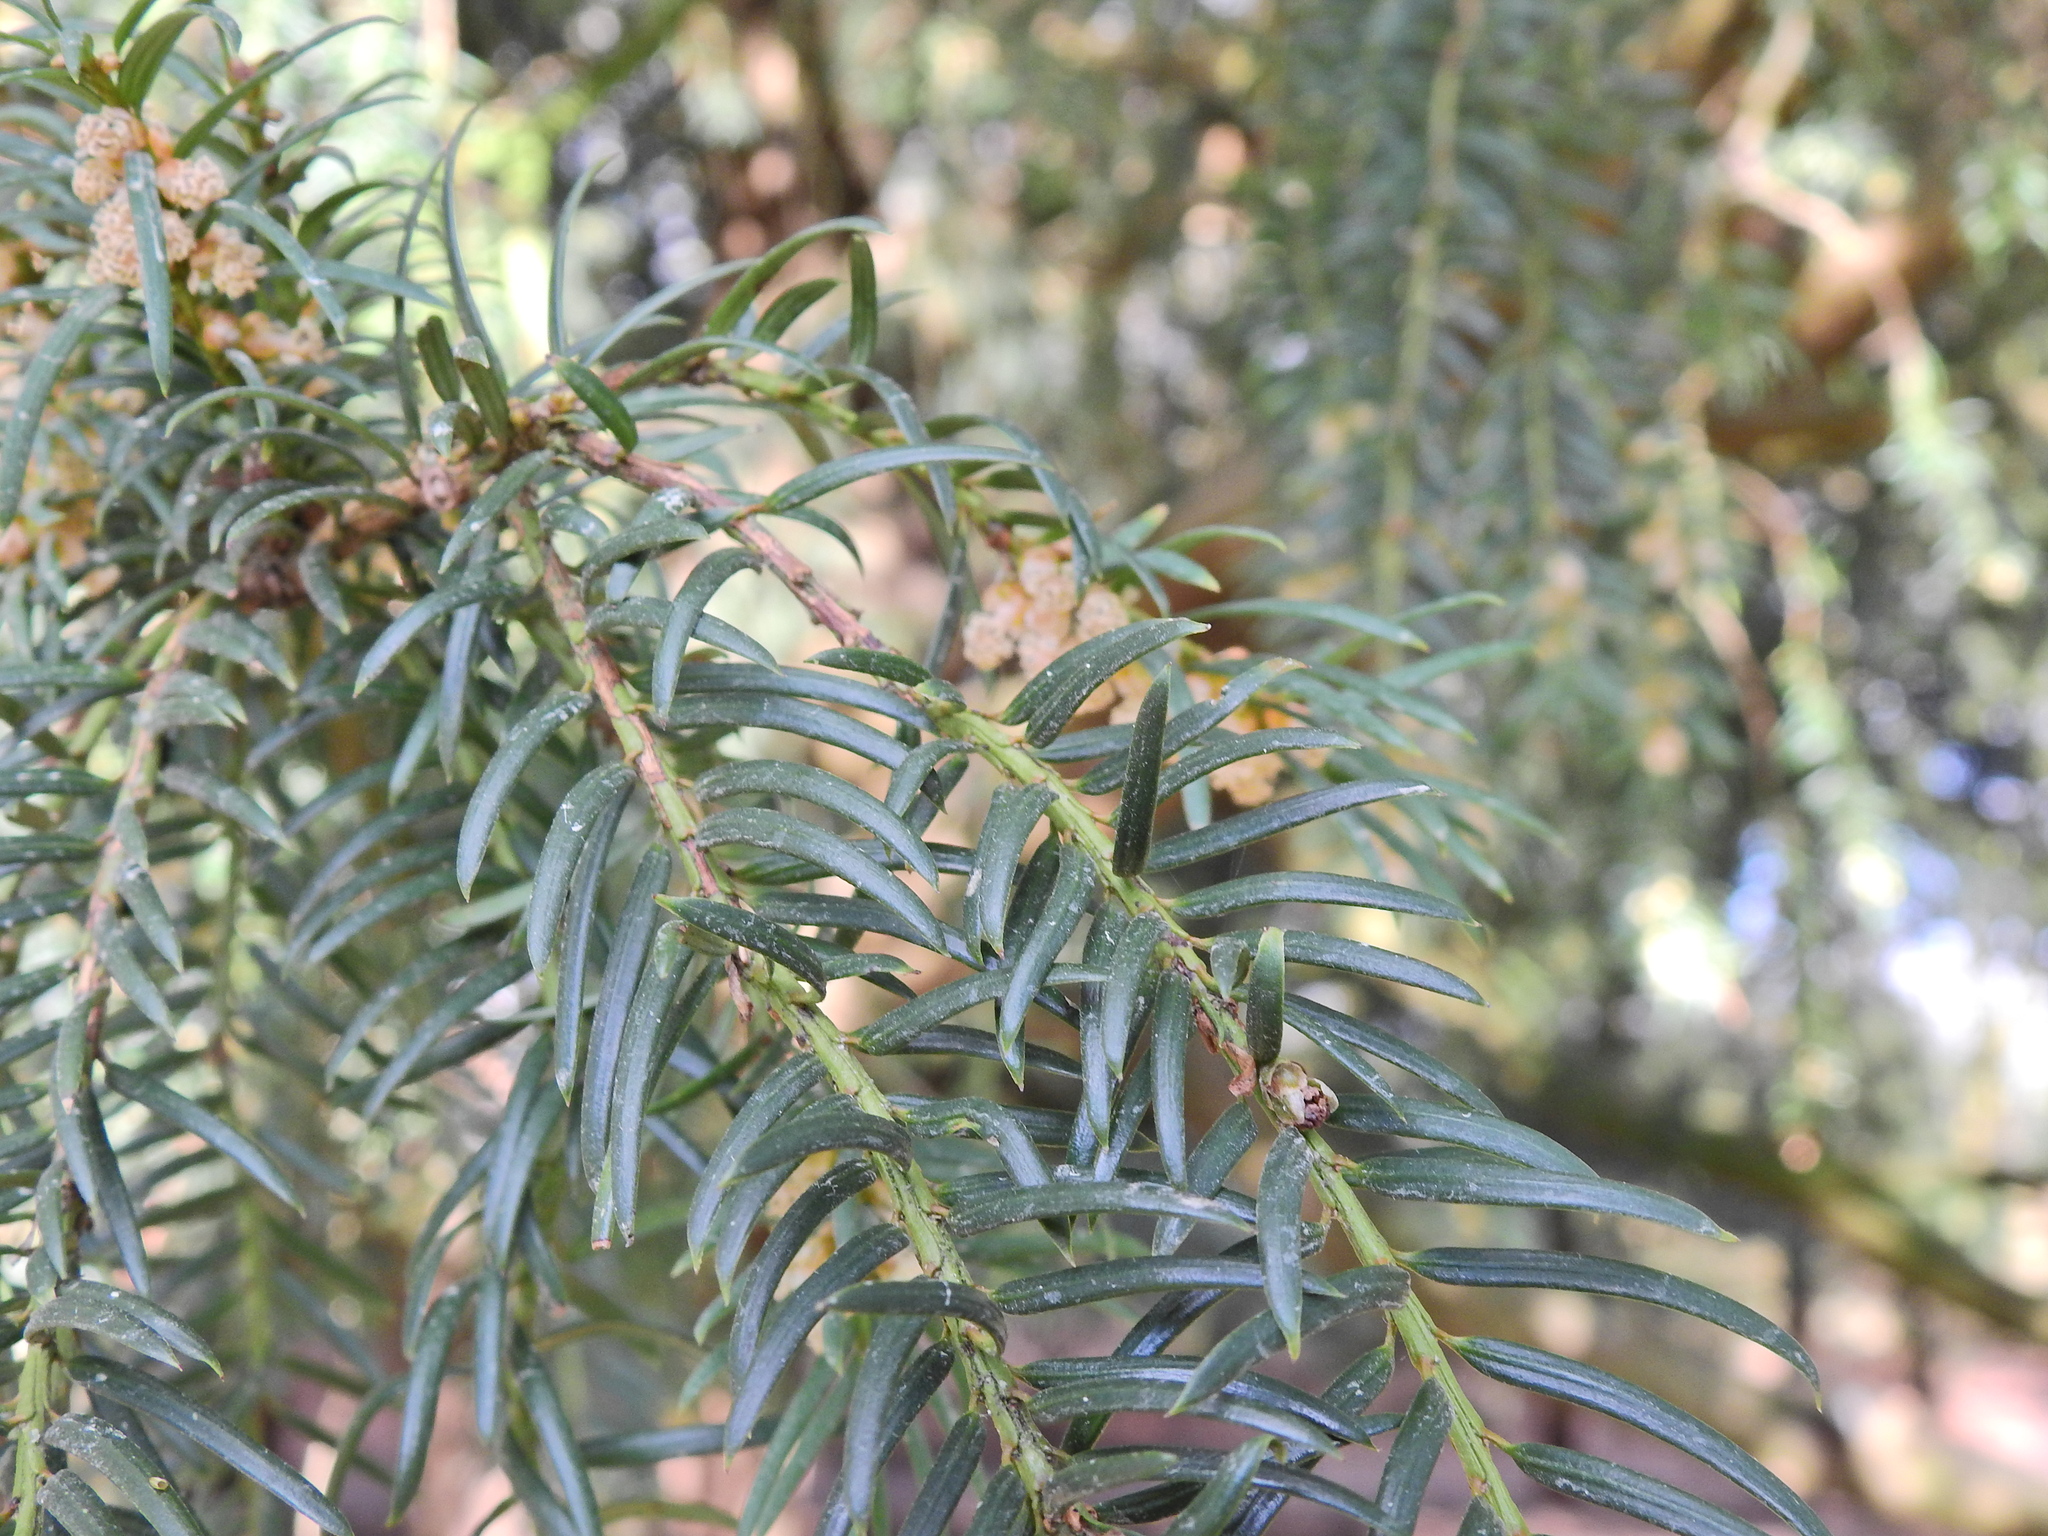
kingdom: Plantae
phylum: Tracheophyta
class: Pinopsida
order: Pinales
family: Taxaceae
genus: Taxus
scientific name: Taxus baccata
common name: Yew
